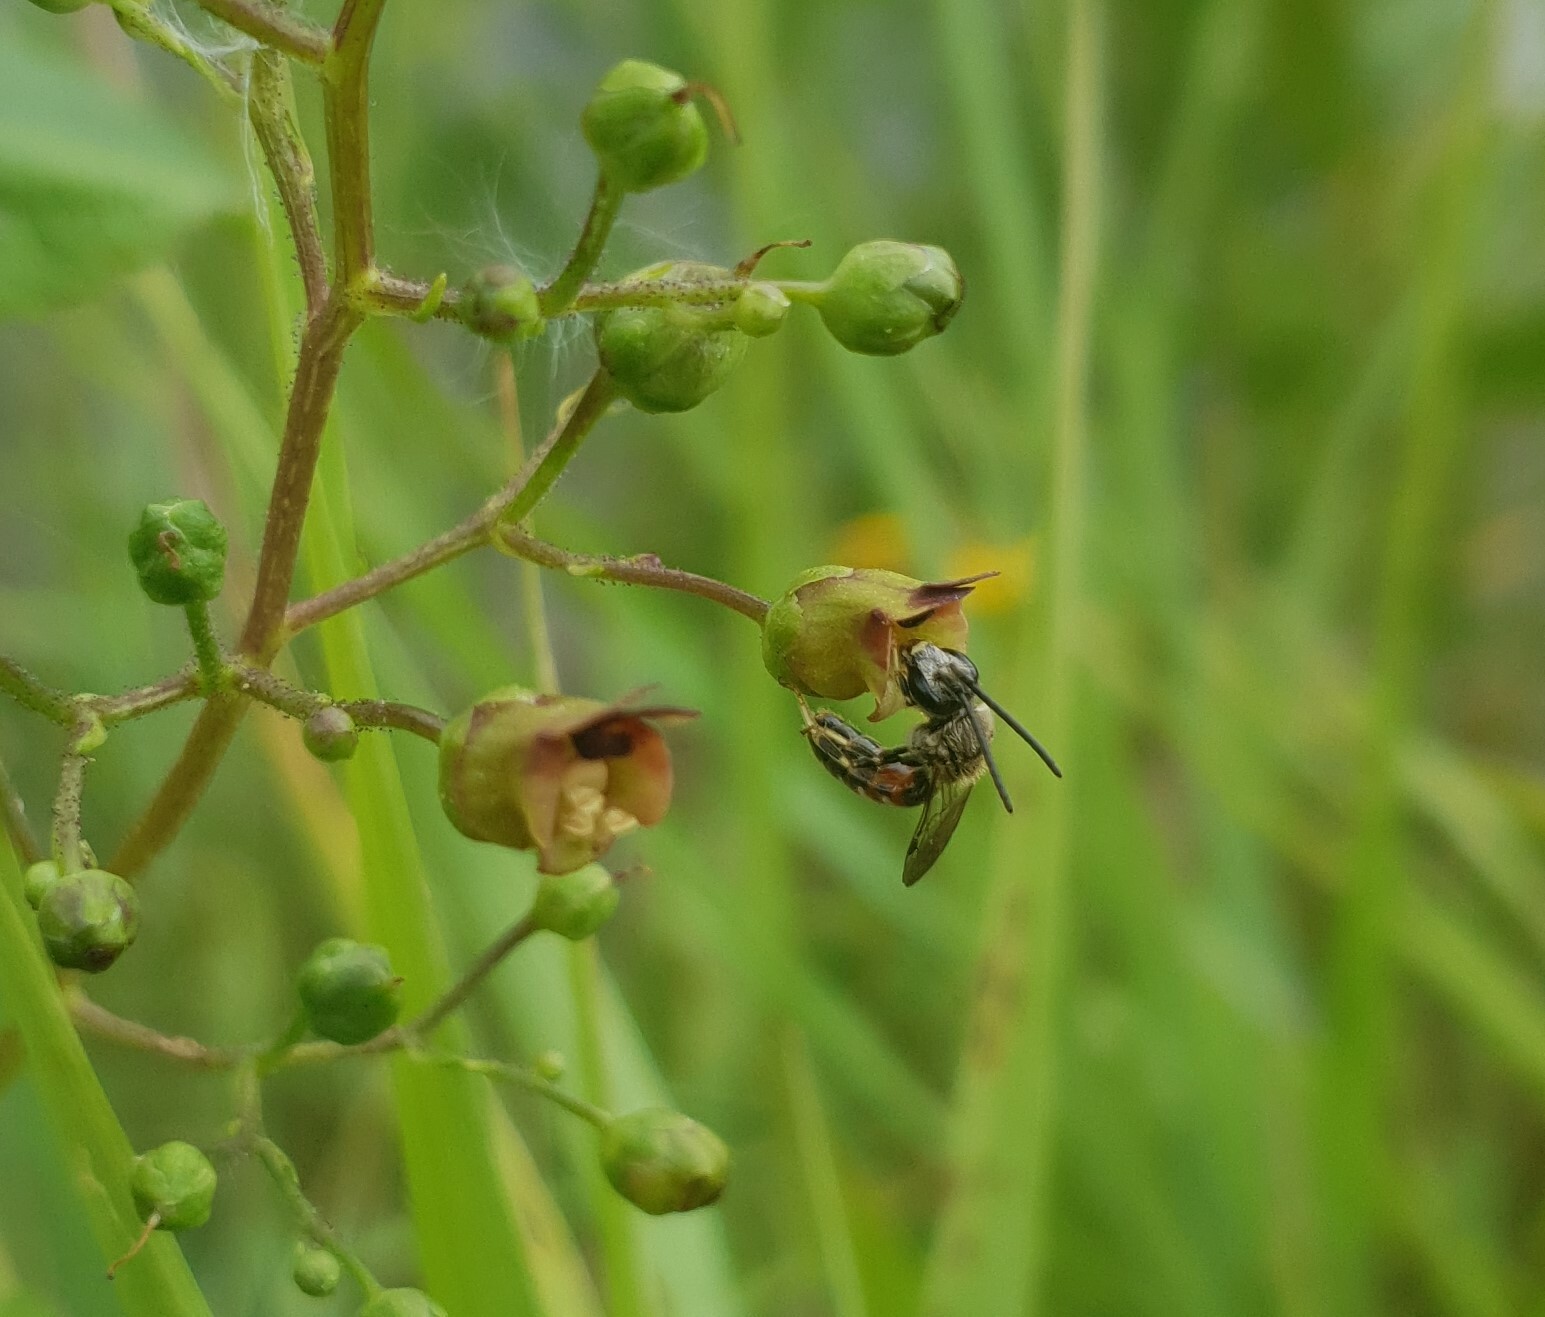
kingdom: Animalia
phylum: Arthropoda
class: Insecta
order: Hymenoptera
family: Halictidae
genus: Sphecodogastra
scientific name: Sphecodogastra
